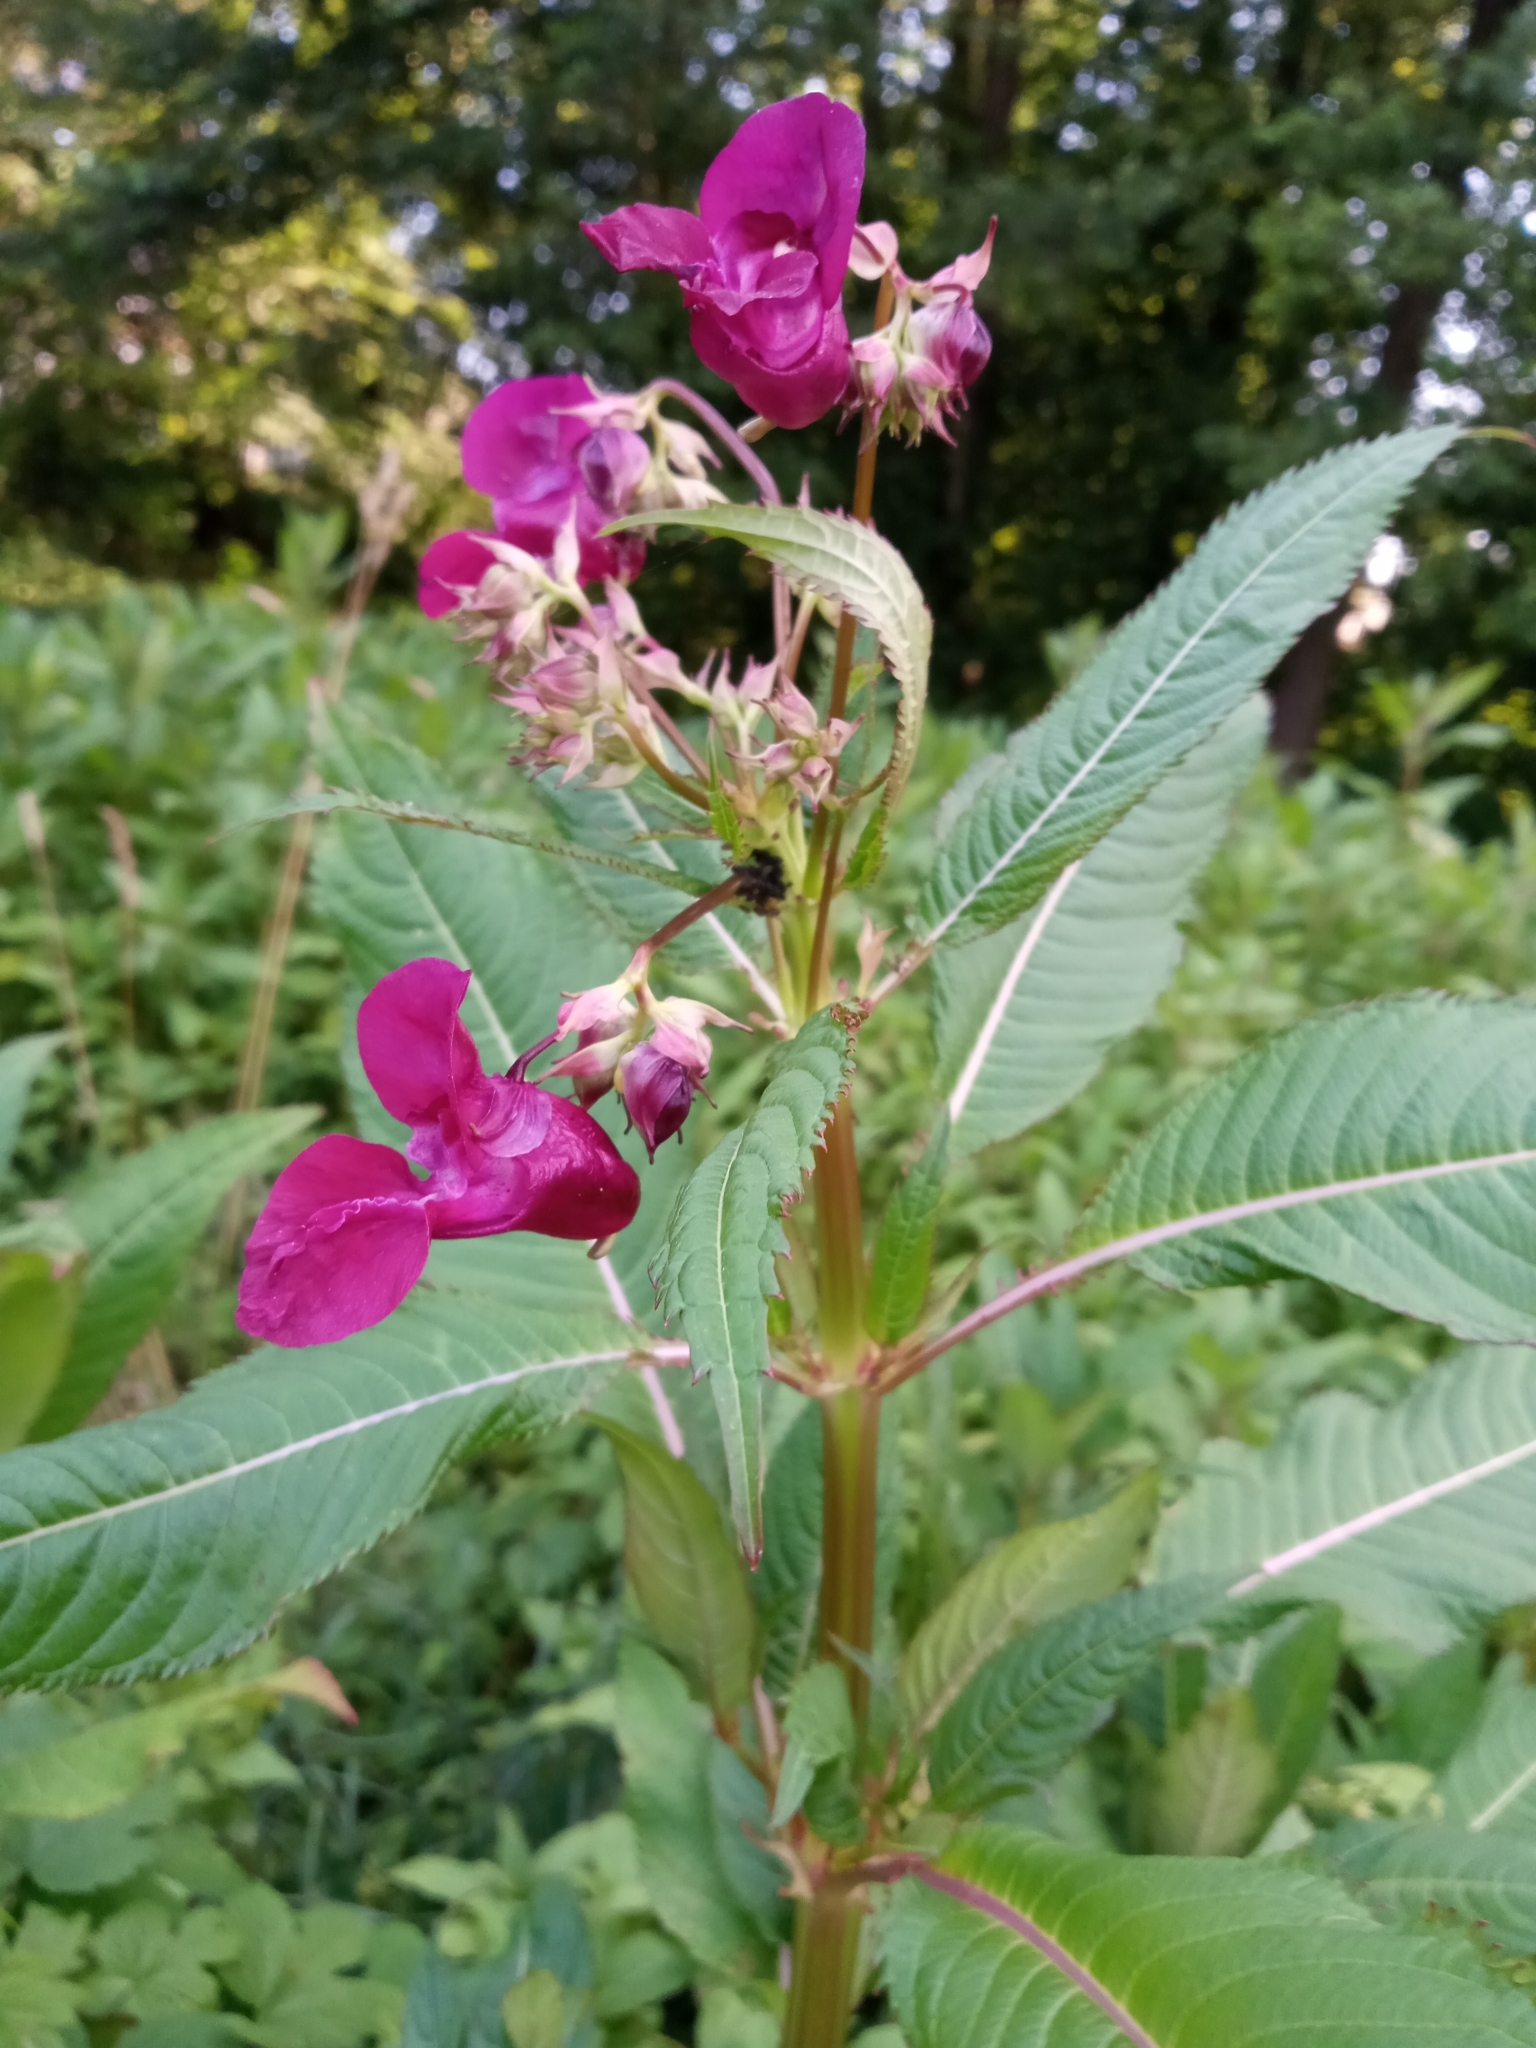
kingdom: Plantae
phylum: Tracheophyta
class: Magnoliopsida
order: Ericales
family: Balsaminaceae
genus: Impatiens
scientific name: Impatiens glandulifera
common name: Himalayan balsam
